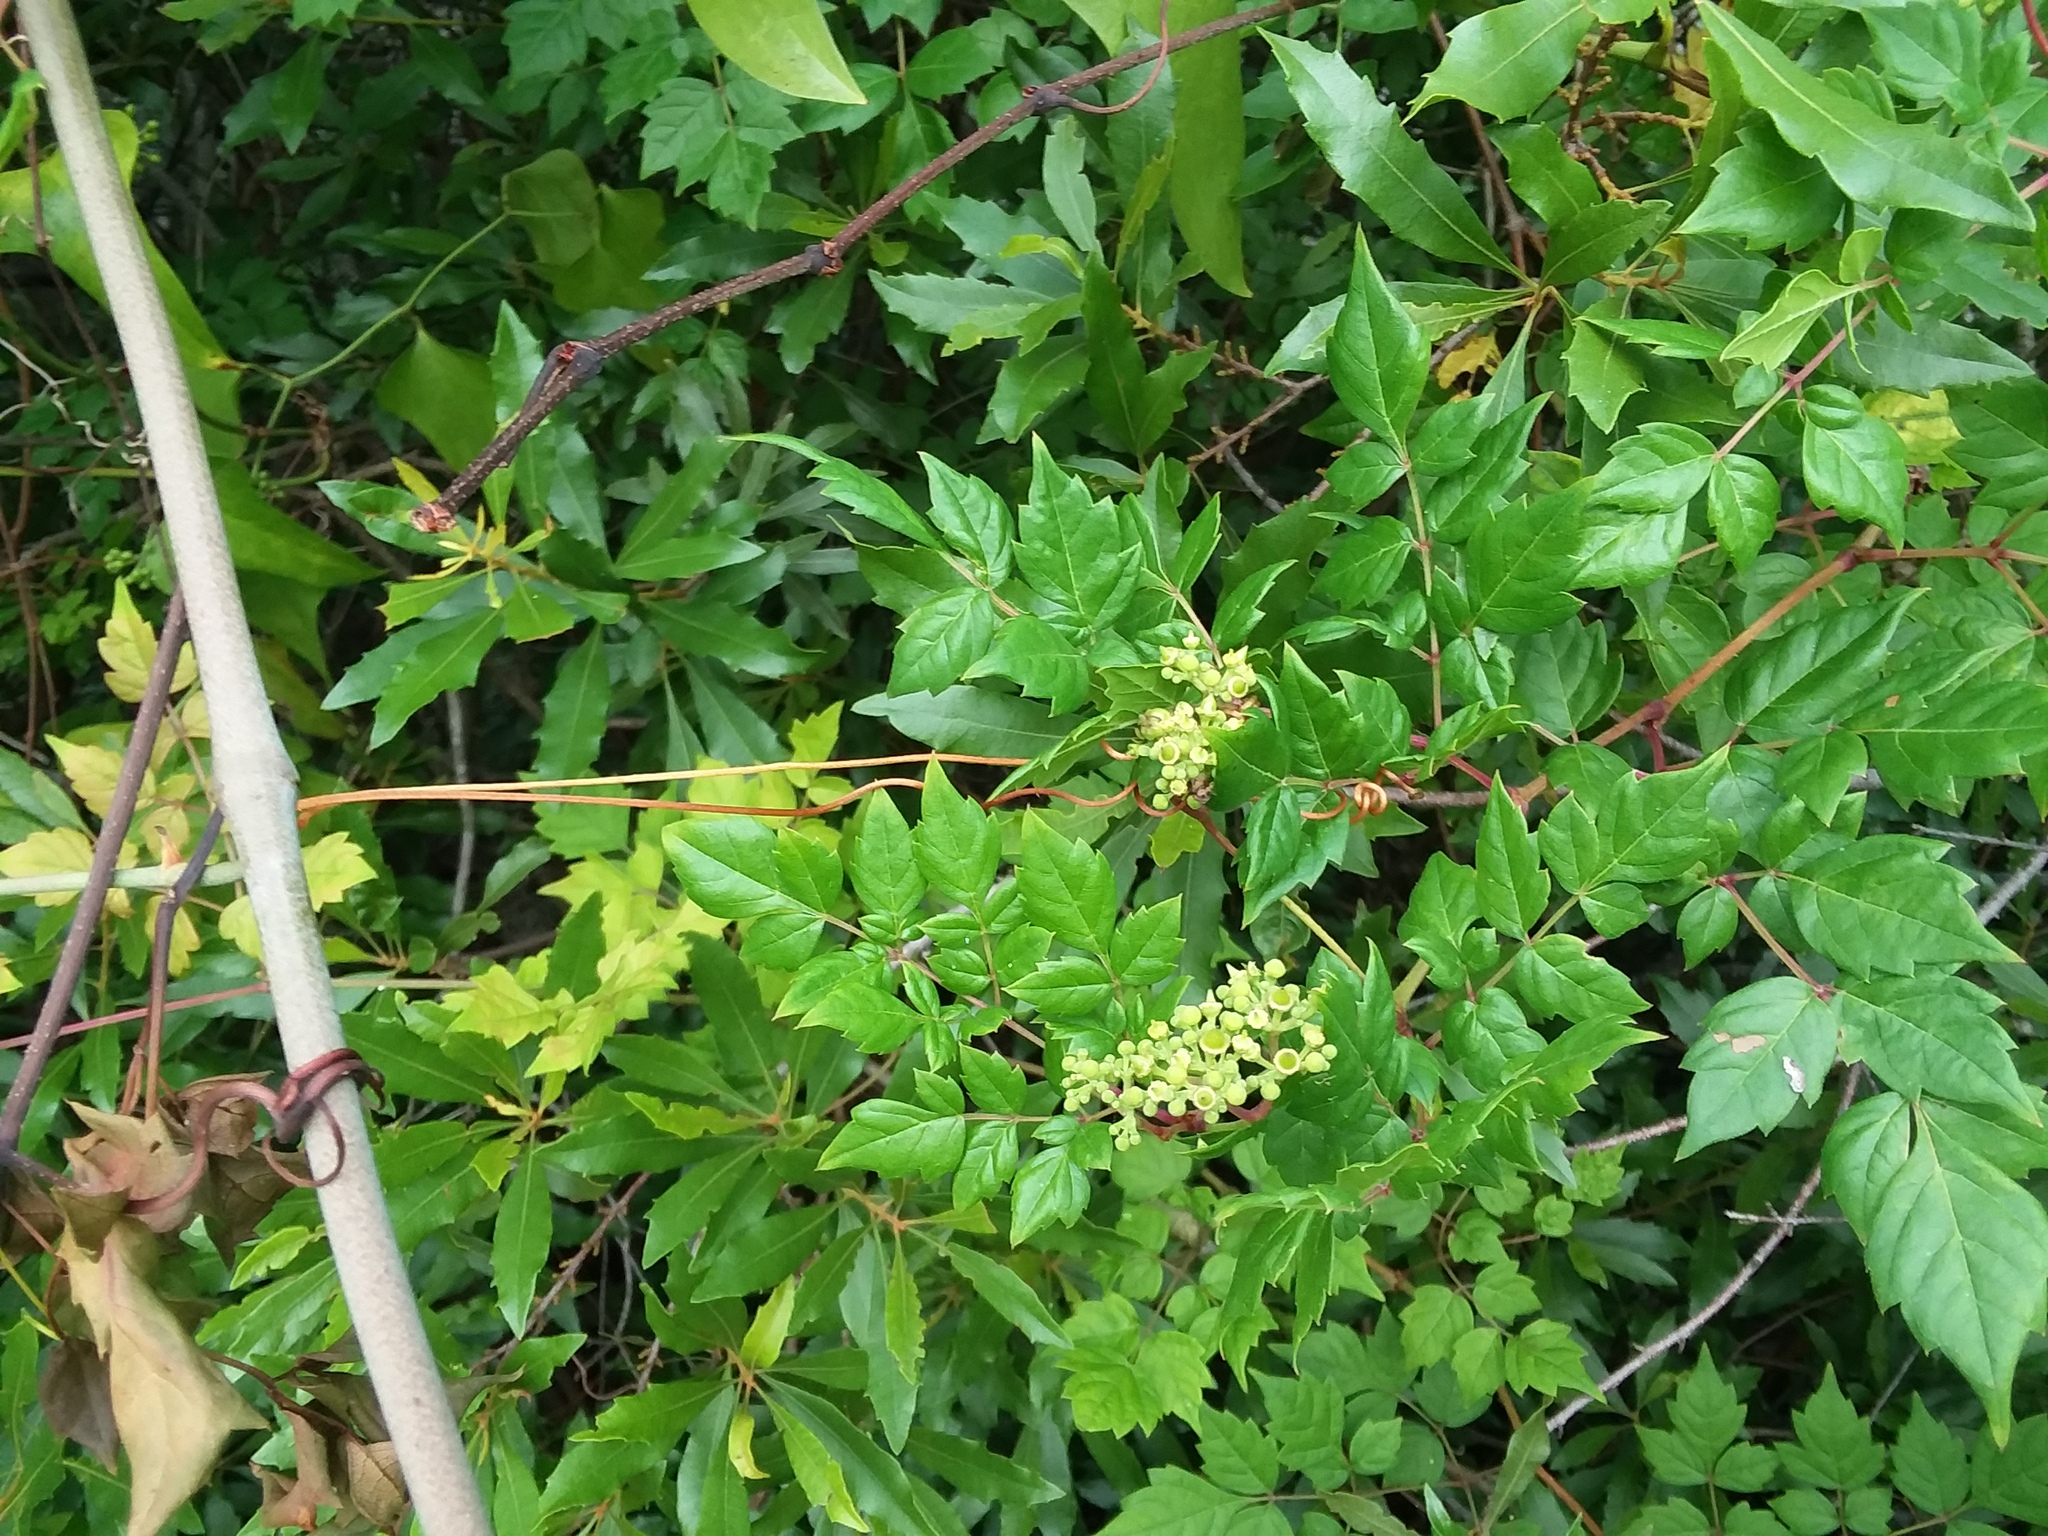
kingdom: Plantae
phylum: Tracheophyta
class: Magnoliopsida
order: Vitales
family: Vitaceae
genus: Nekemias
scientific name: Nekemias arborea
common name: Peppervine
